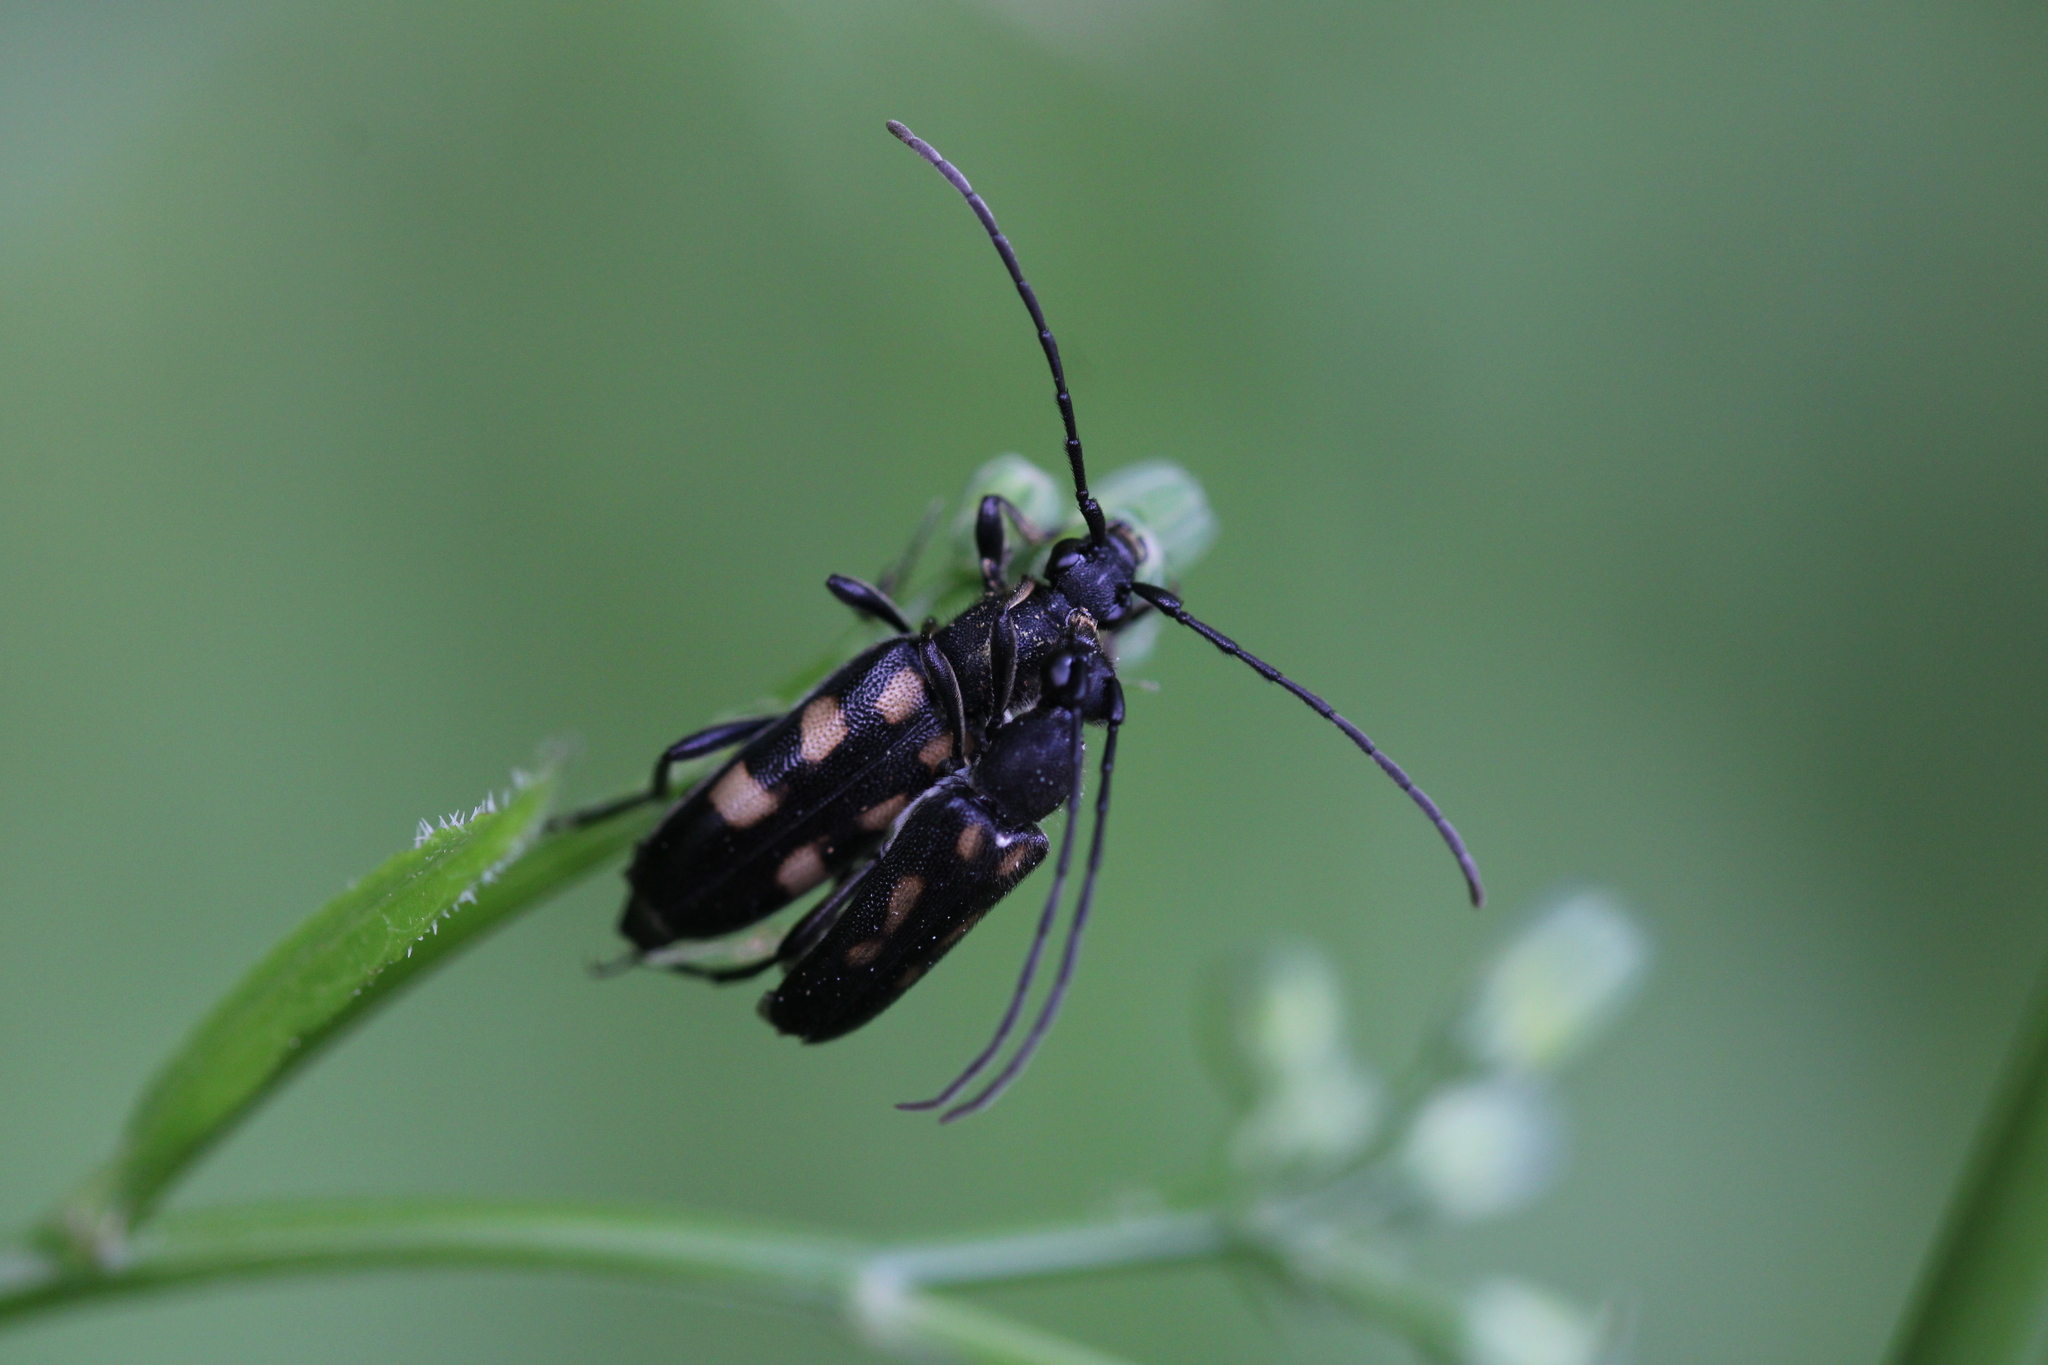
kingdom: Animalia
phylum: Arthropoda
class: Insecta
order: Coleoptera
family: Cerambycidae
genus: Anoplodera
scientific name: Anoplodera sexguttata
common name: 6 spotted longhorn
